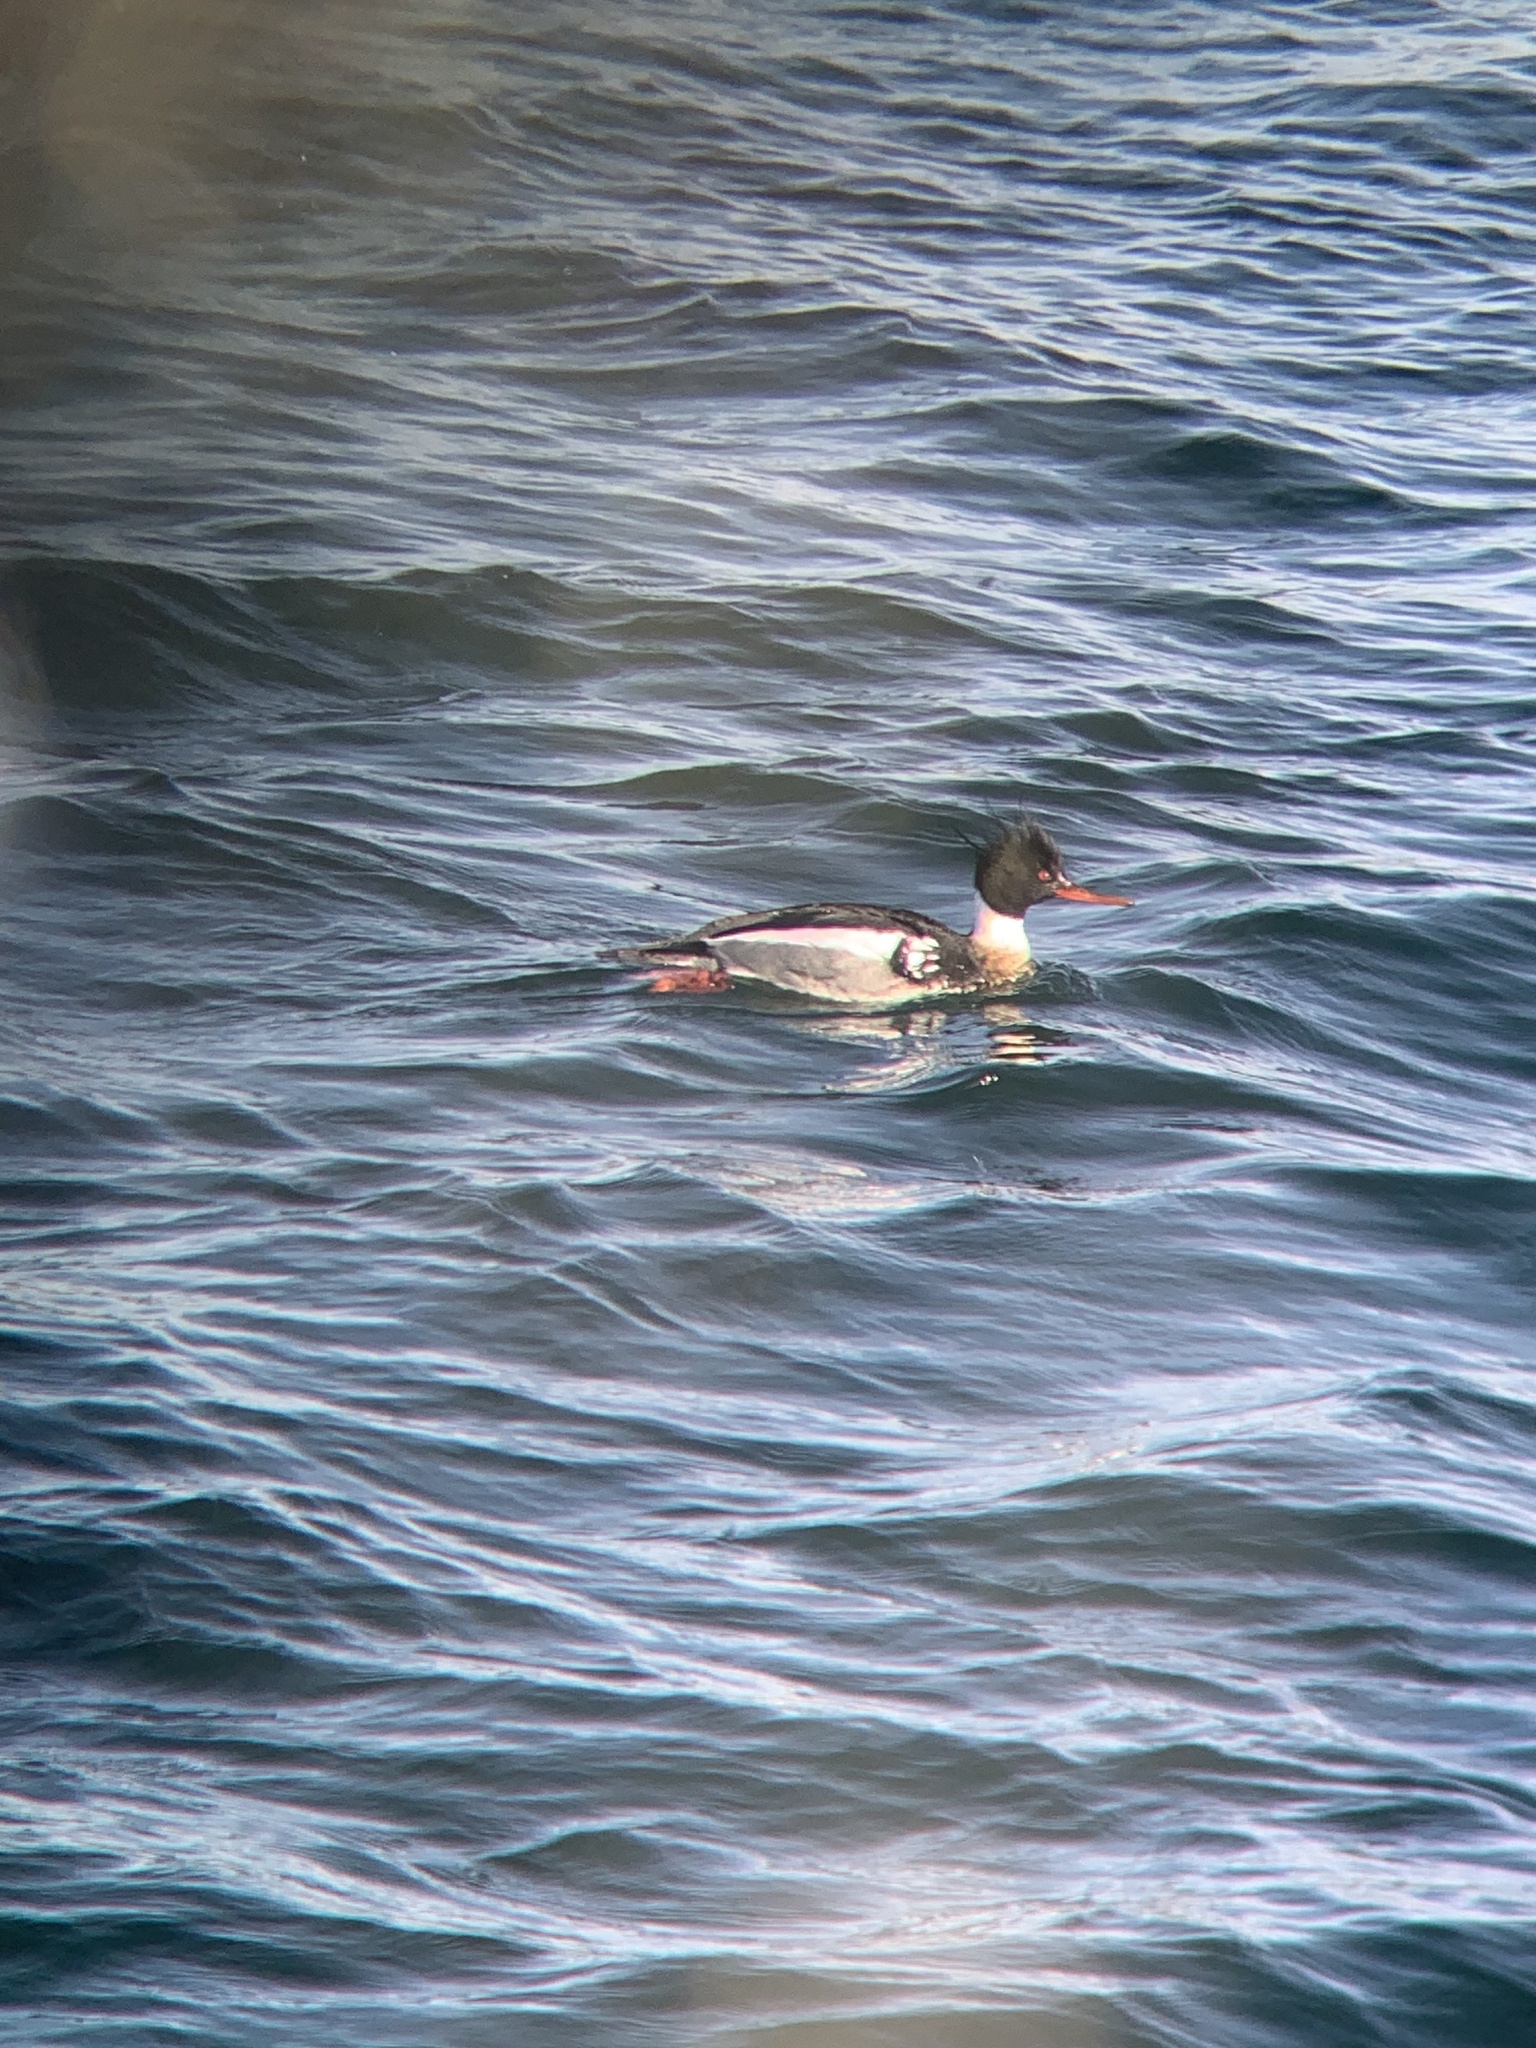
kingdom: Animalia
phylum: Chordata
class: Aves
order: Anseriformes
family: Anatidae
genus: Mergus
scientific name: Mergus serrator
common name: Red-breasted merganser
